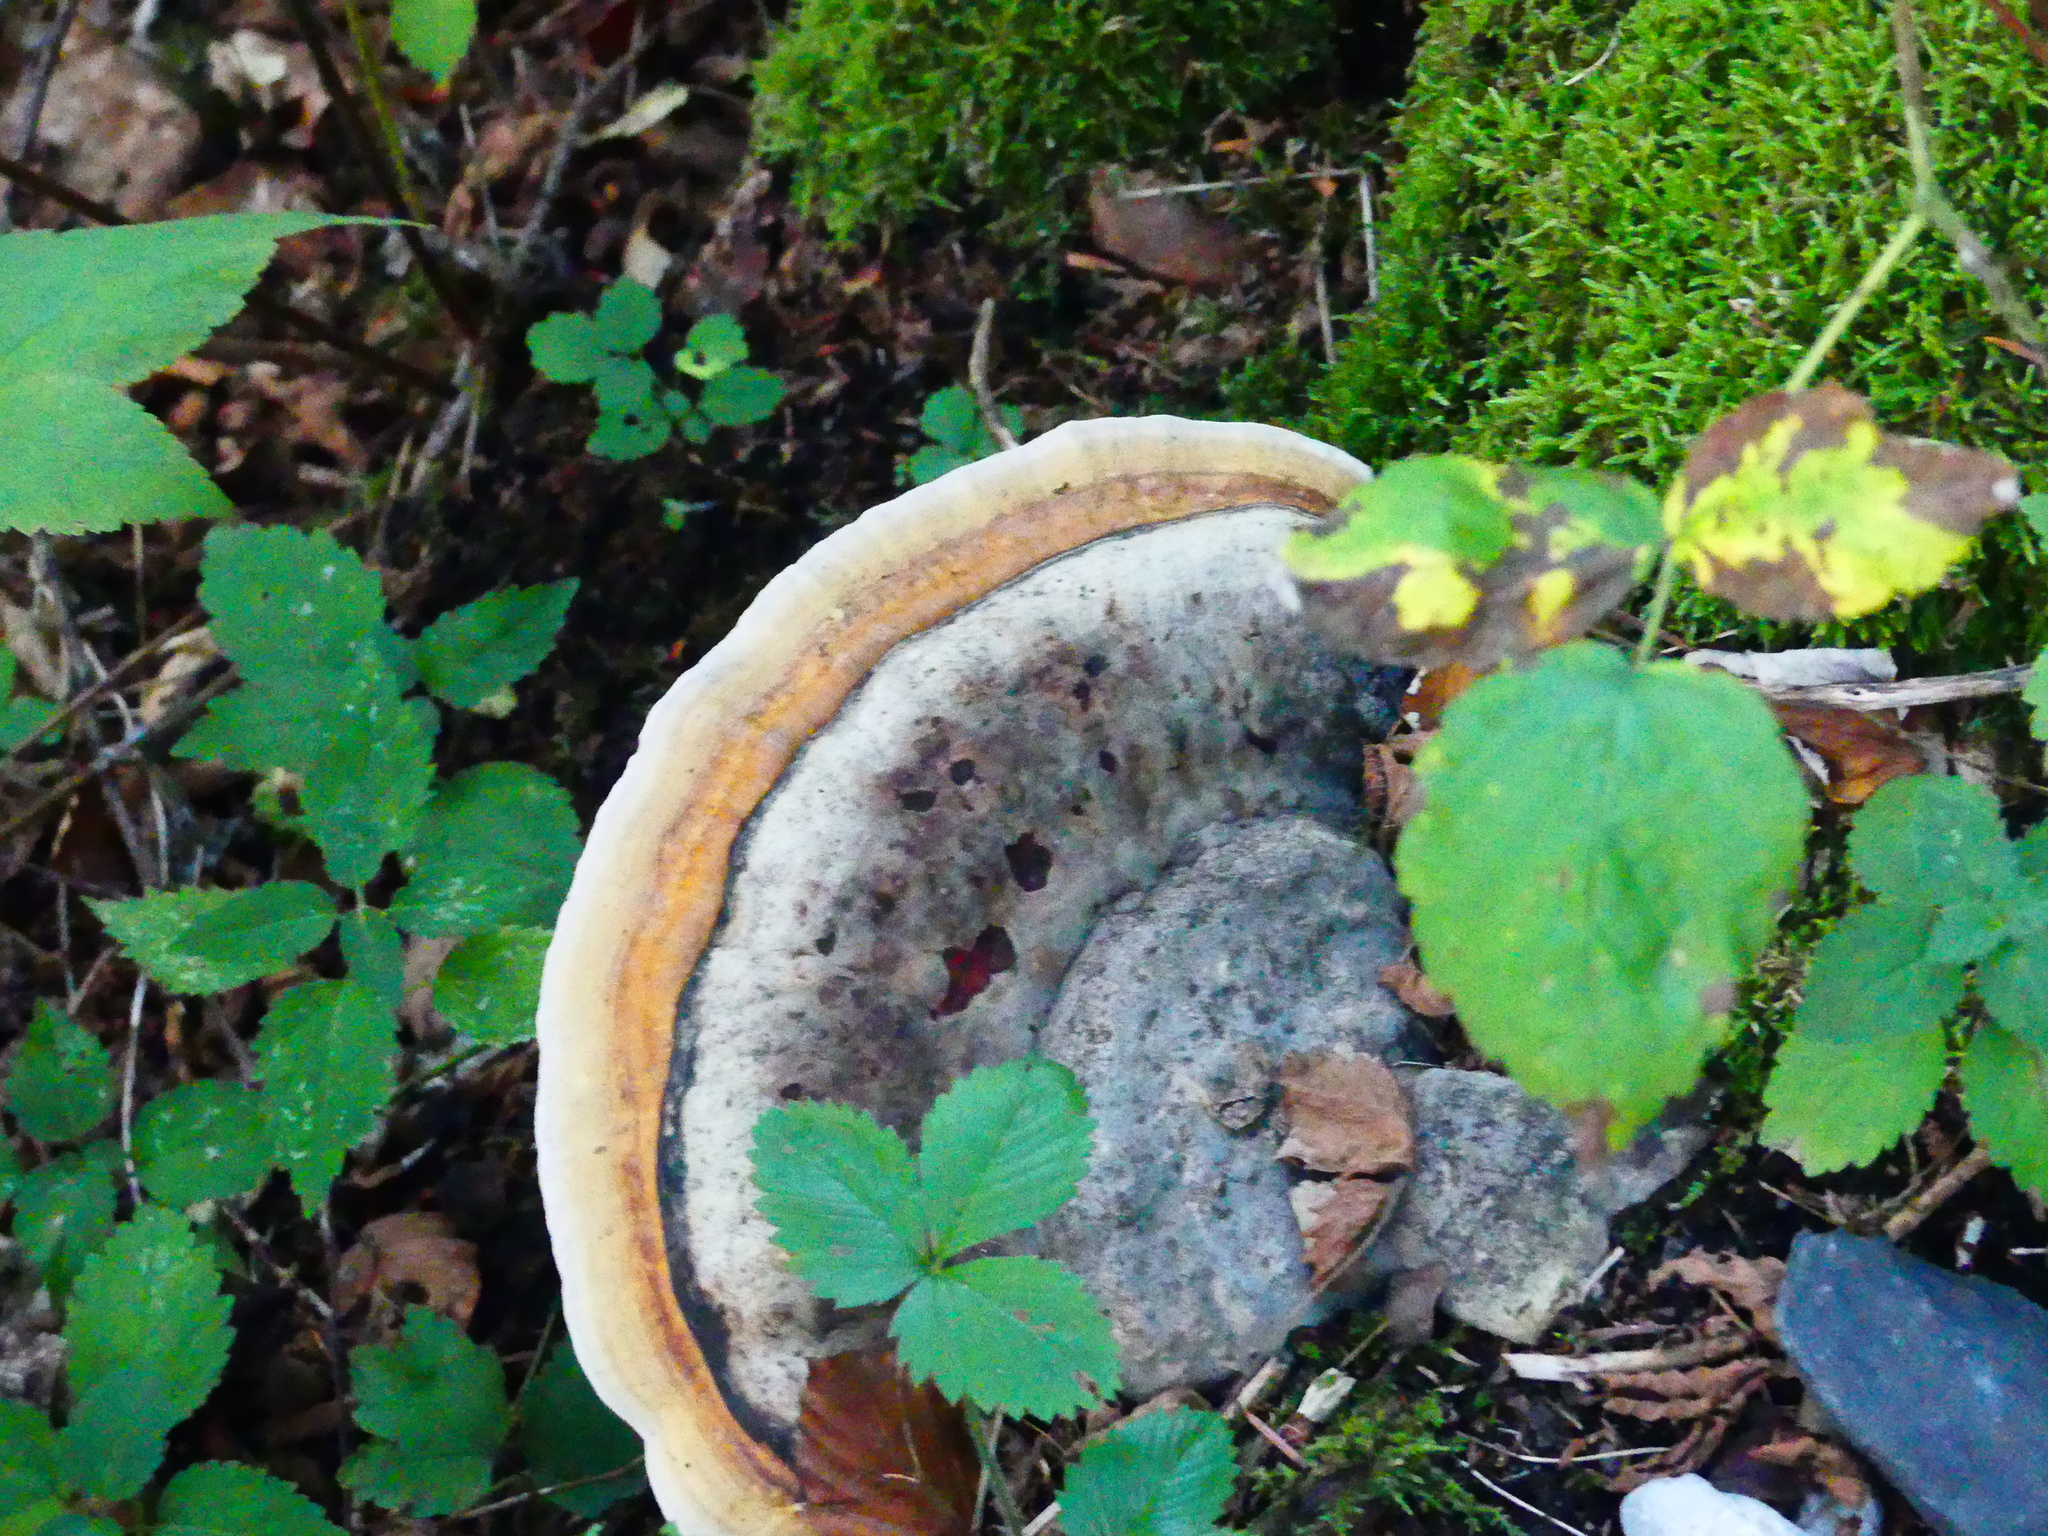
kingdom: Fungi
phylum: Basidiomycota
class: Agaricomycetes
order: Polyporales
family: Fomitopsidaceae
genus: Fomitopsis
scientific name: Fomitopsis pinicola
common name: Red-belted bracket
